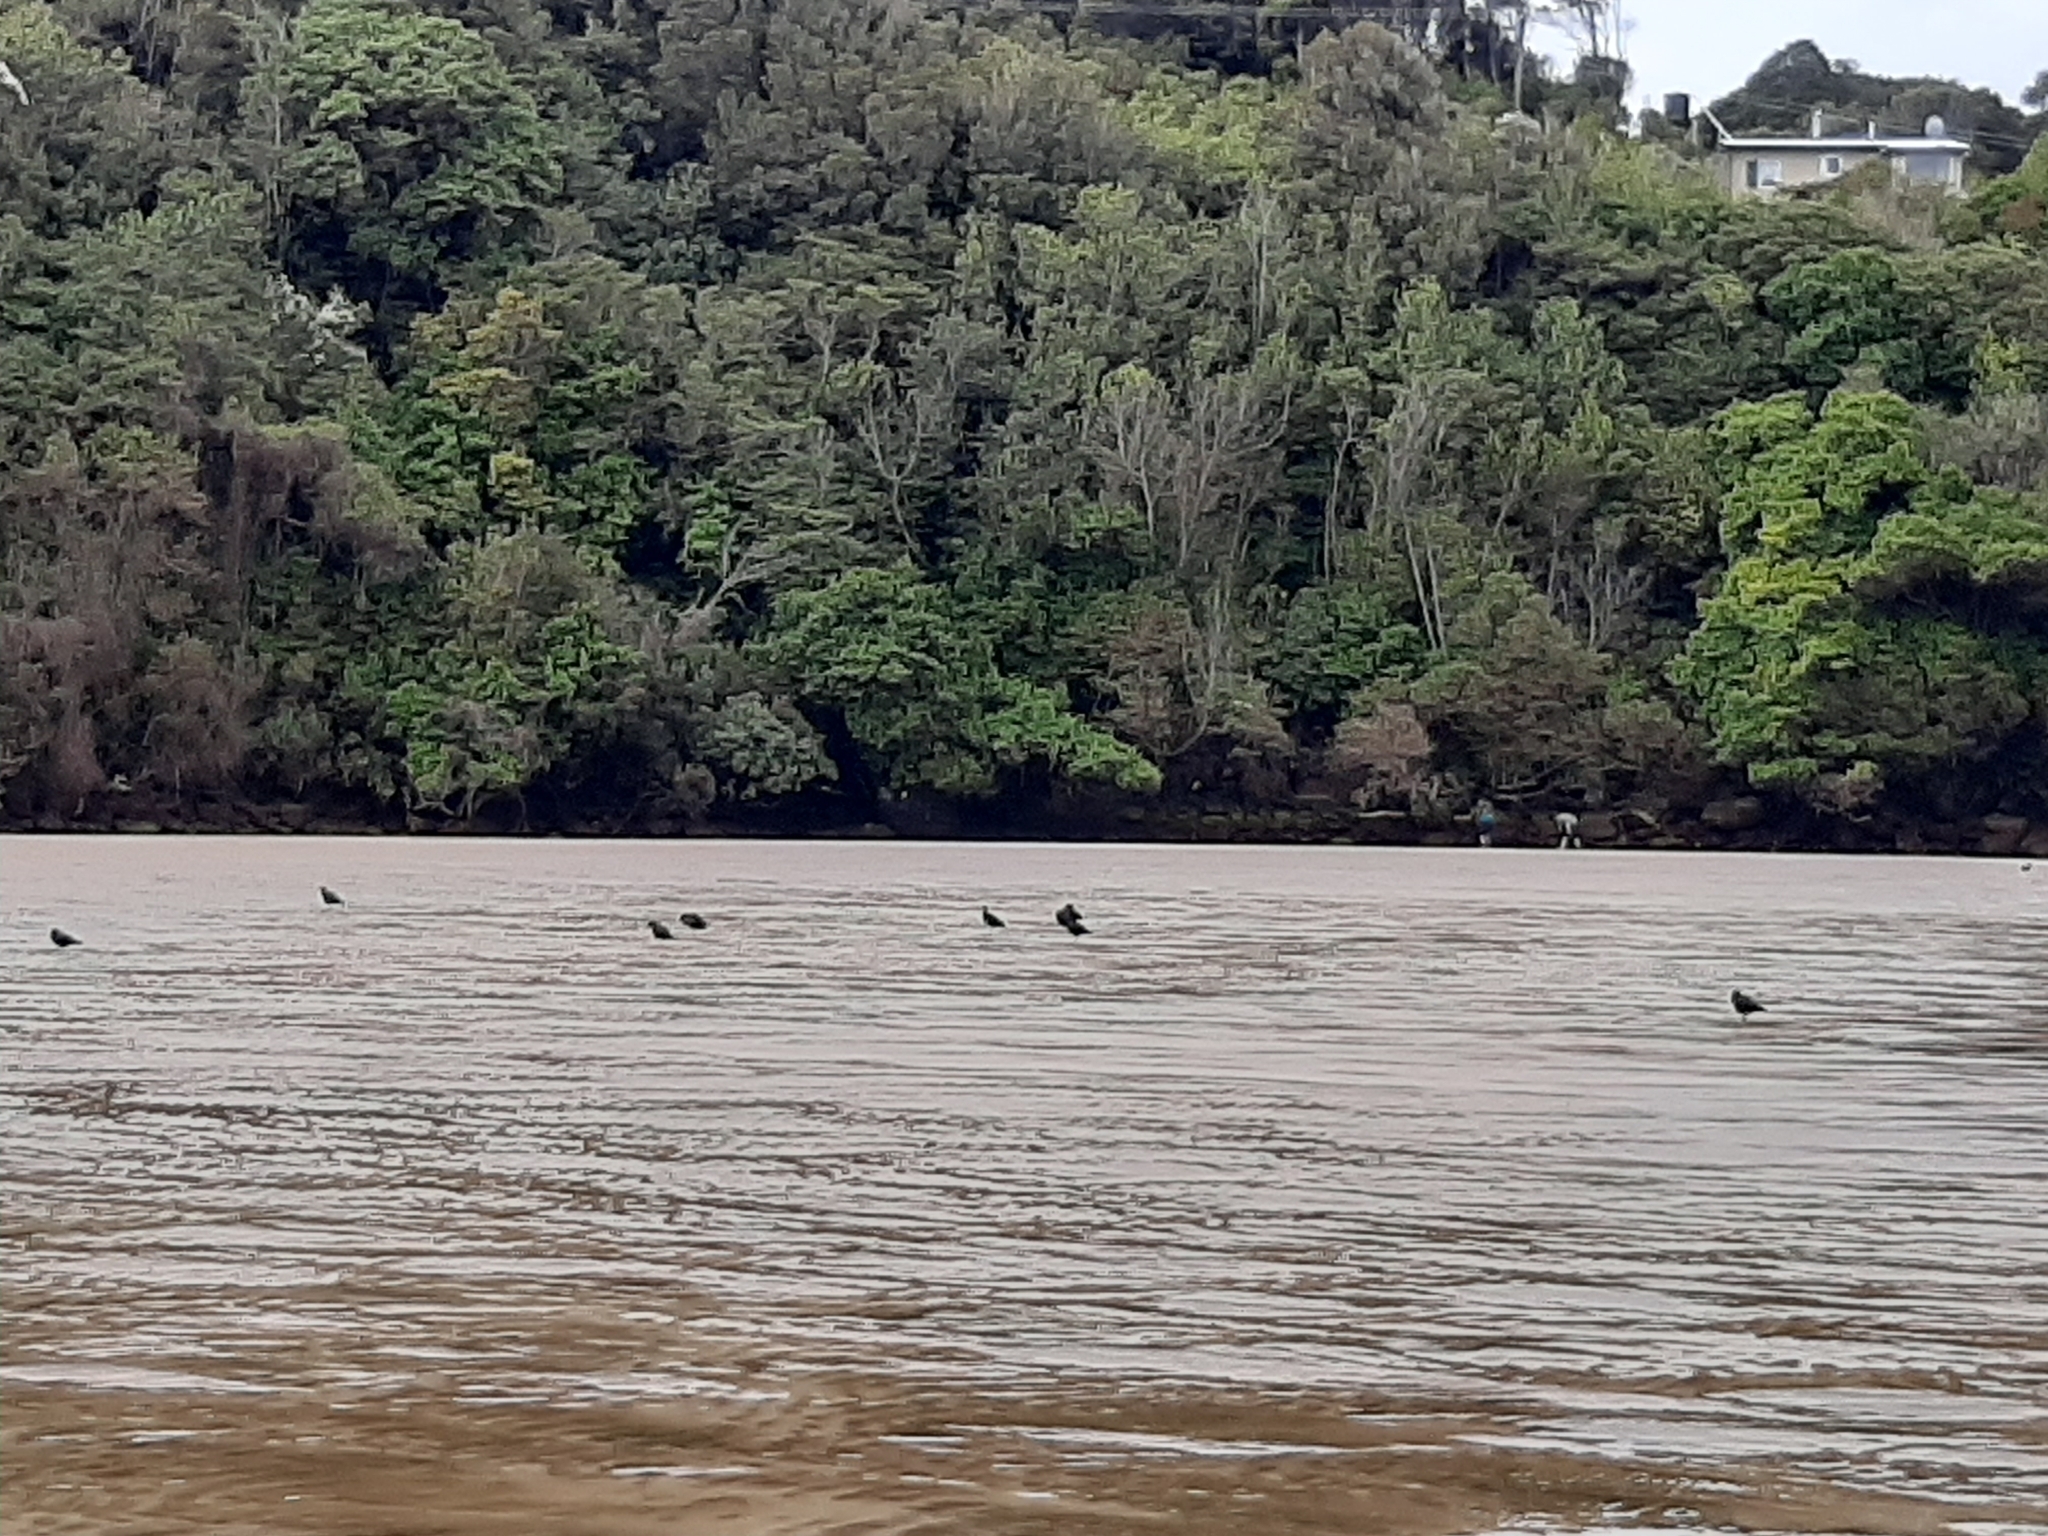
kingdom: Animalia
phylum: Chordata
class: Aves
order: Charadriiformes
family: Haematopodidae
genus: Haematopus
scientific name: Haematopus unicolor
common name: Variable oystercatcher
